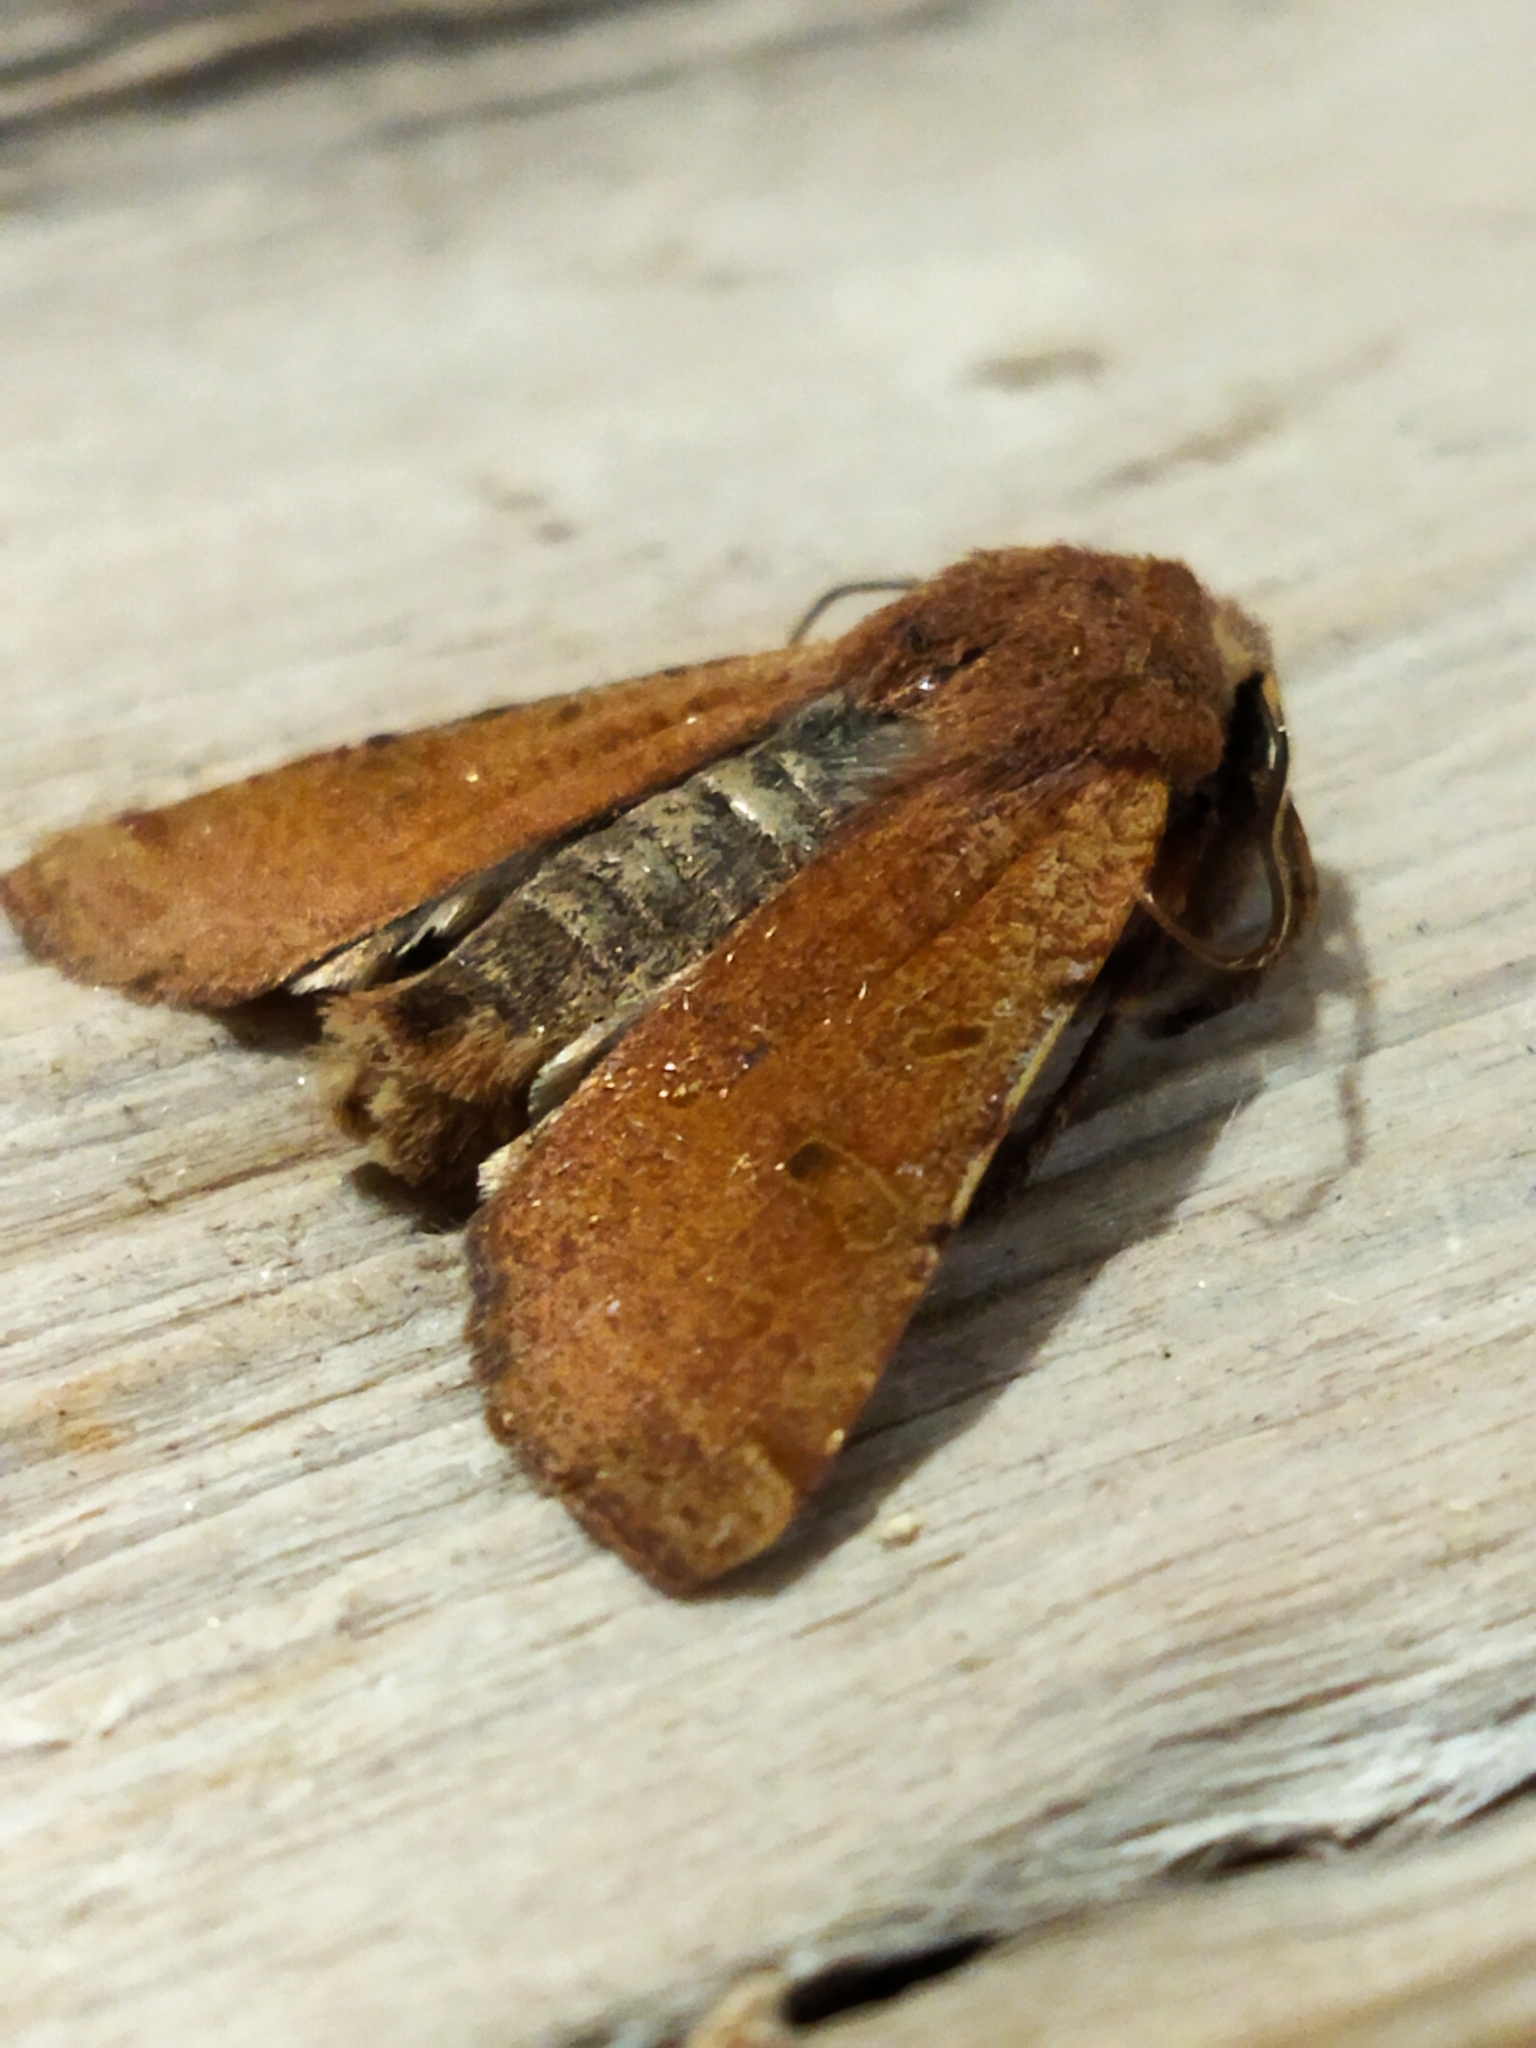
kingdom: Animalia
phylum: Arthropoda
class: Insecta
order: Lepidoptera
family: Noctuidae
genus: Agrochola
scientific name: Agrochola lychnidis
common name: Beaded chestnut
